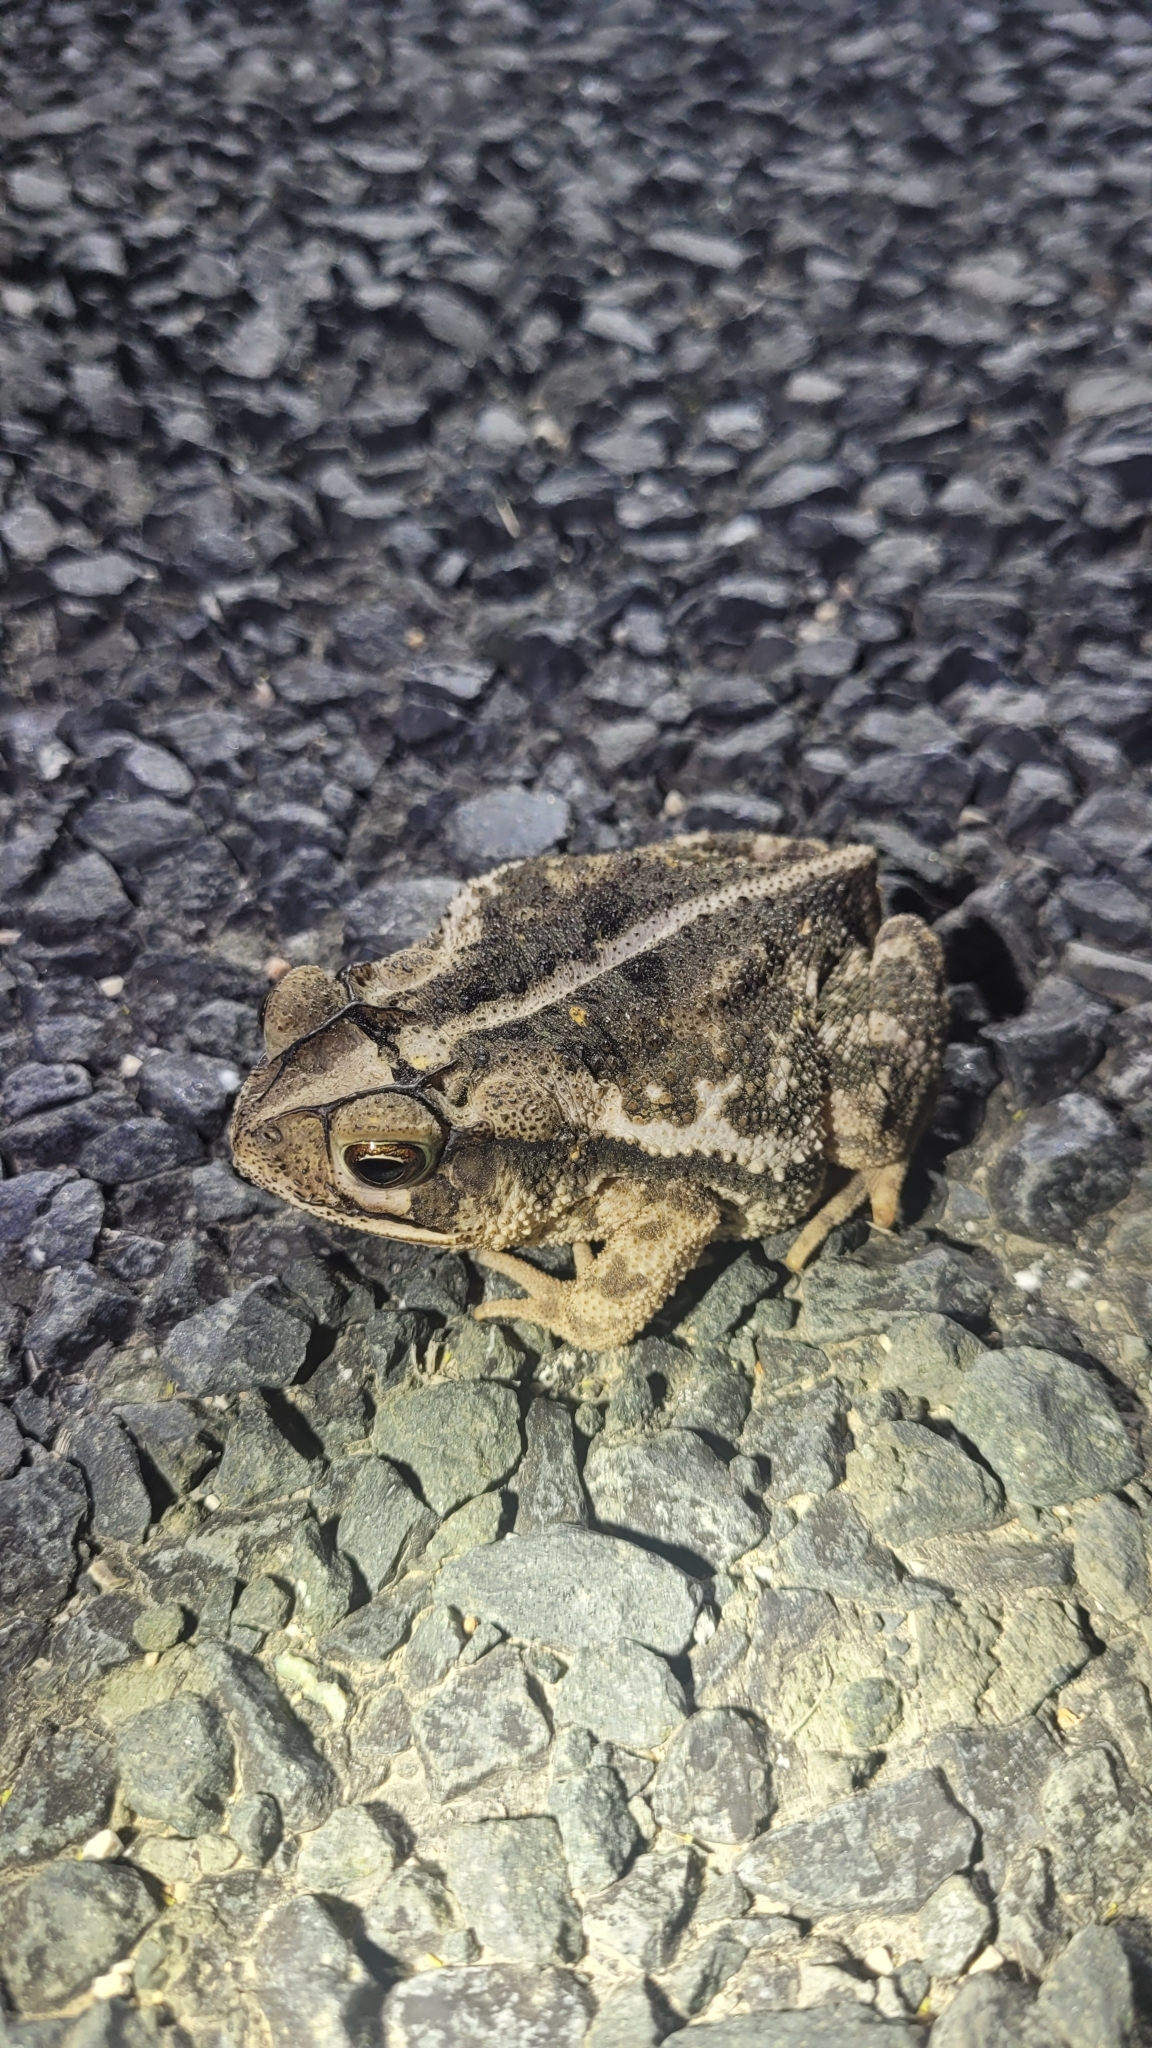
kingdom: Animalia
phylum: Chordata
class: Amphibia
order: Anura
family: Bufonidae
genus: Incilius
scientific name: Incilius nebulifer
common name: Gulf coast toad
